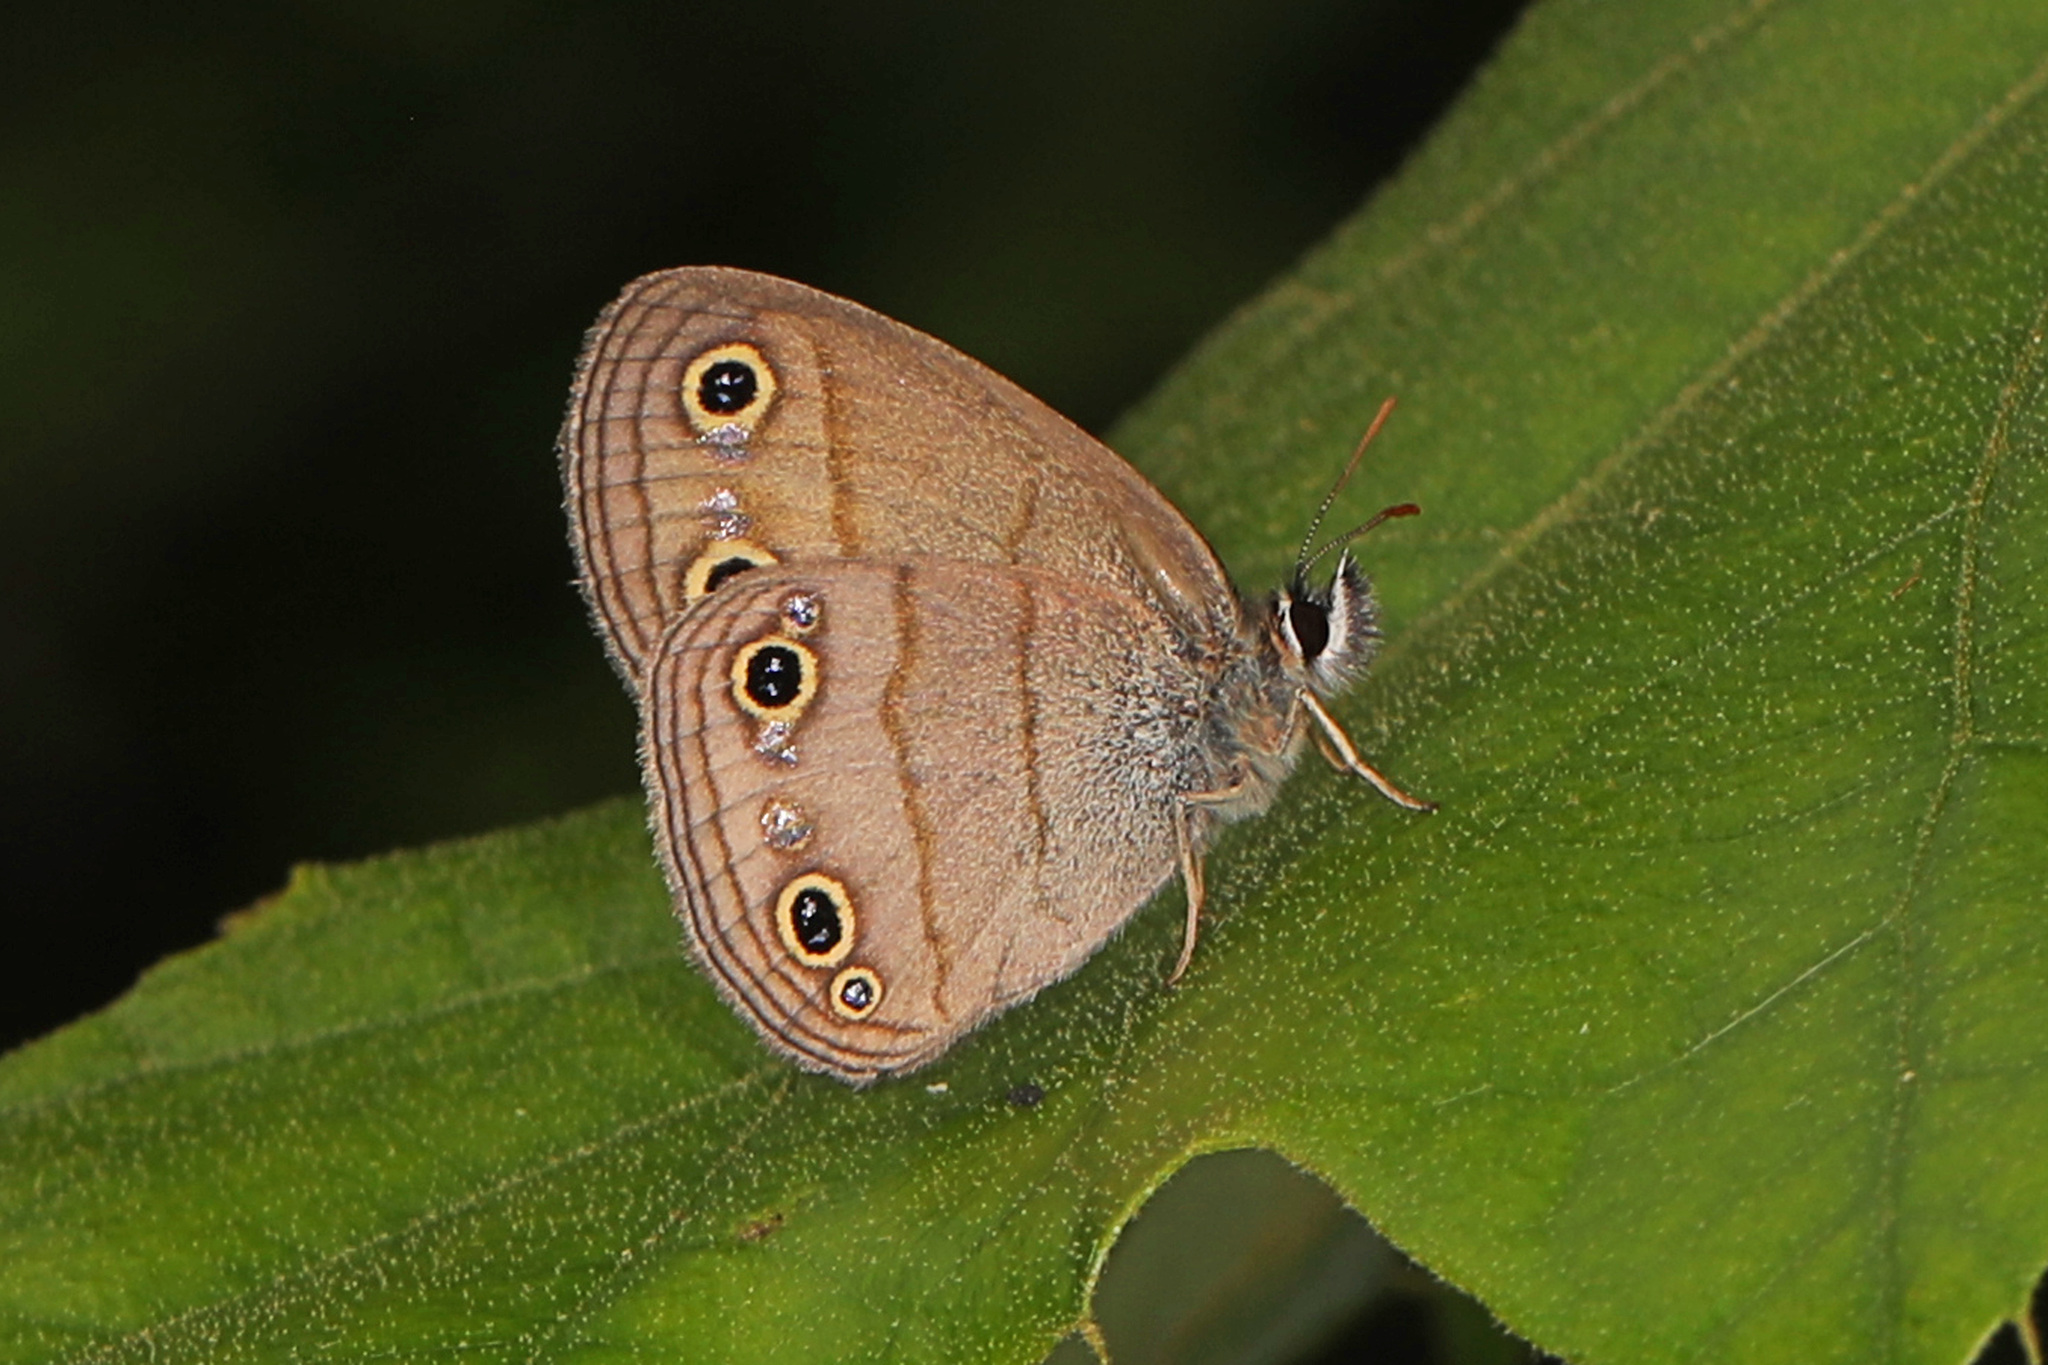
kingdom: Animalia
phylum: Arthropoda
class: Insecta
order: Lepidoptera
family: Nymphalidae
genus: Euptychia
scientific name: Euptychia cymela
